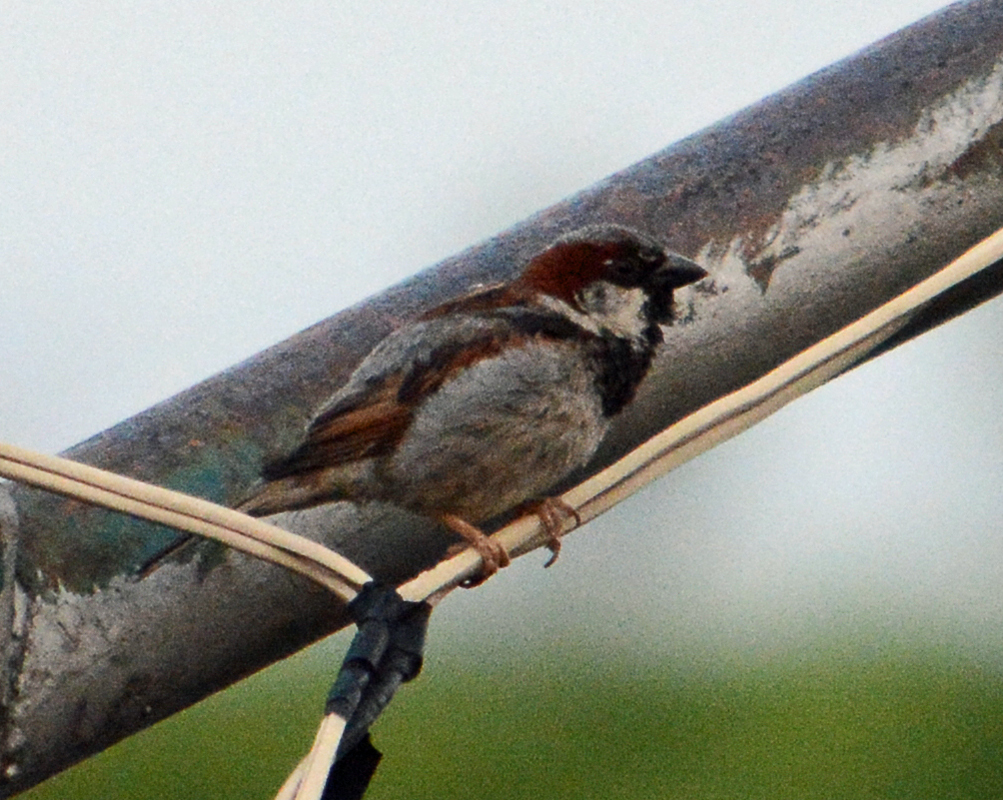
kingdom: Animalia
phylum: Chordata
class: Aves
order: Passeriformes
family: Passeridae
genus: Passer
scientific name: Passer domesticus
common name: House sparrow
